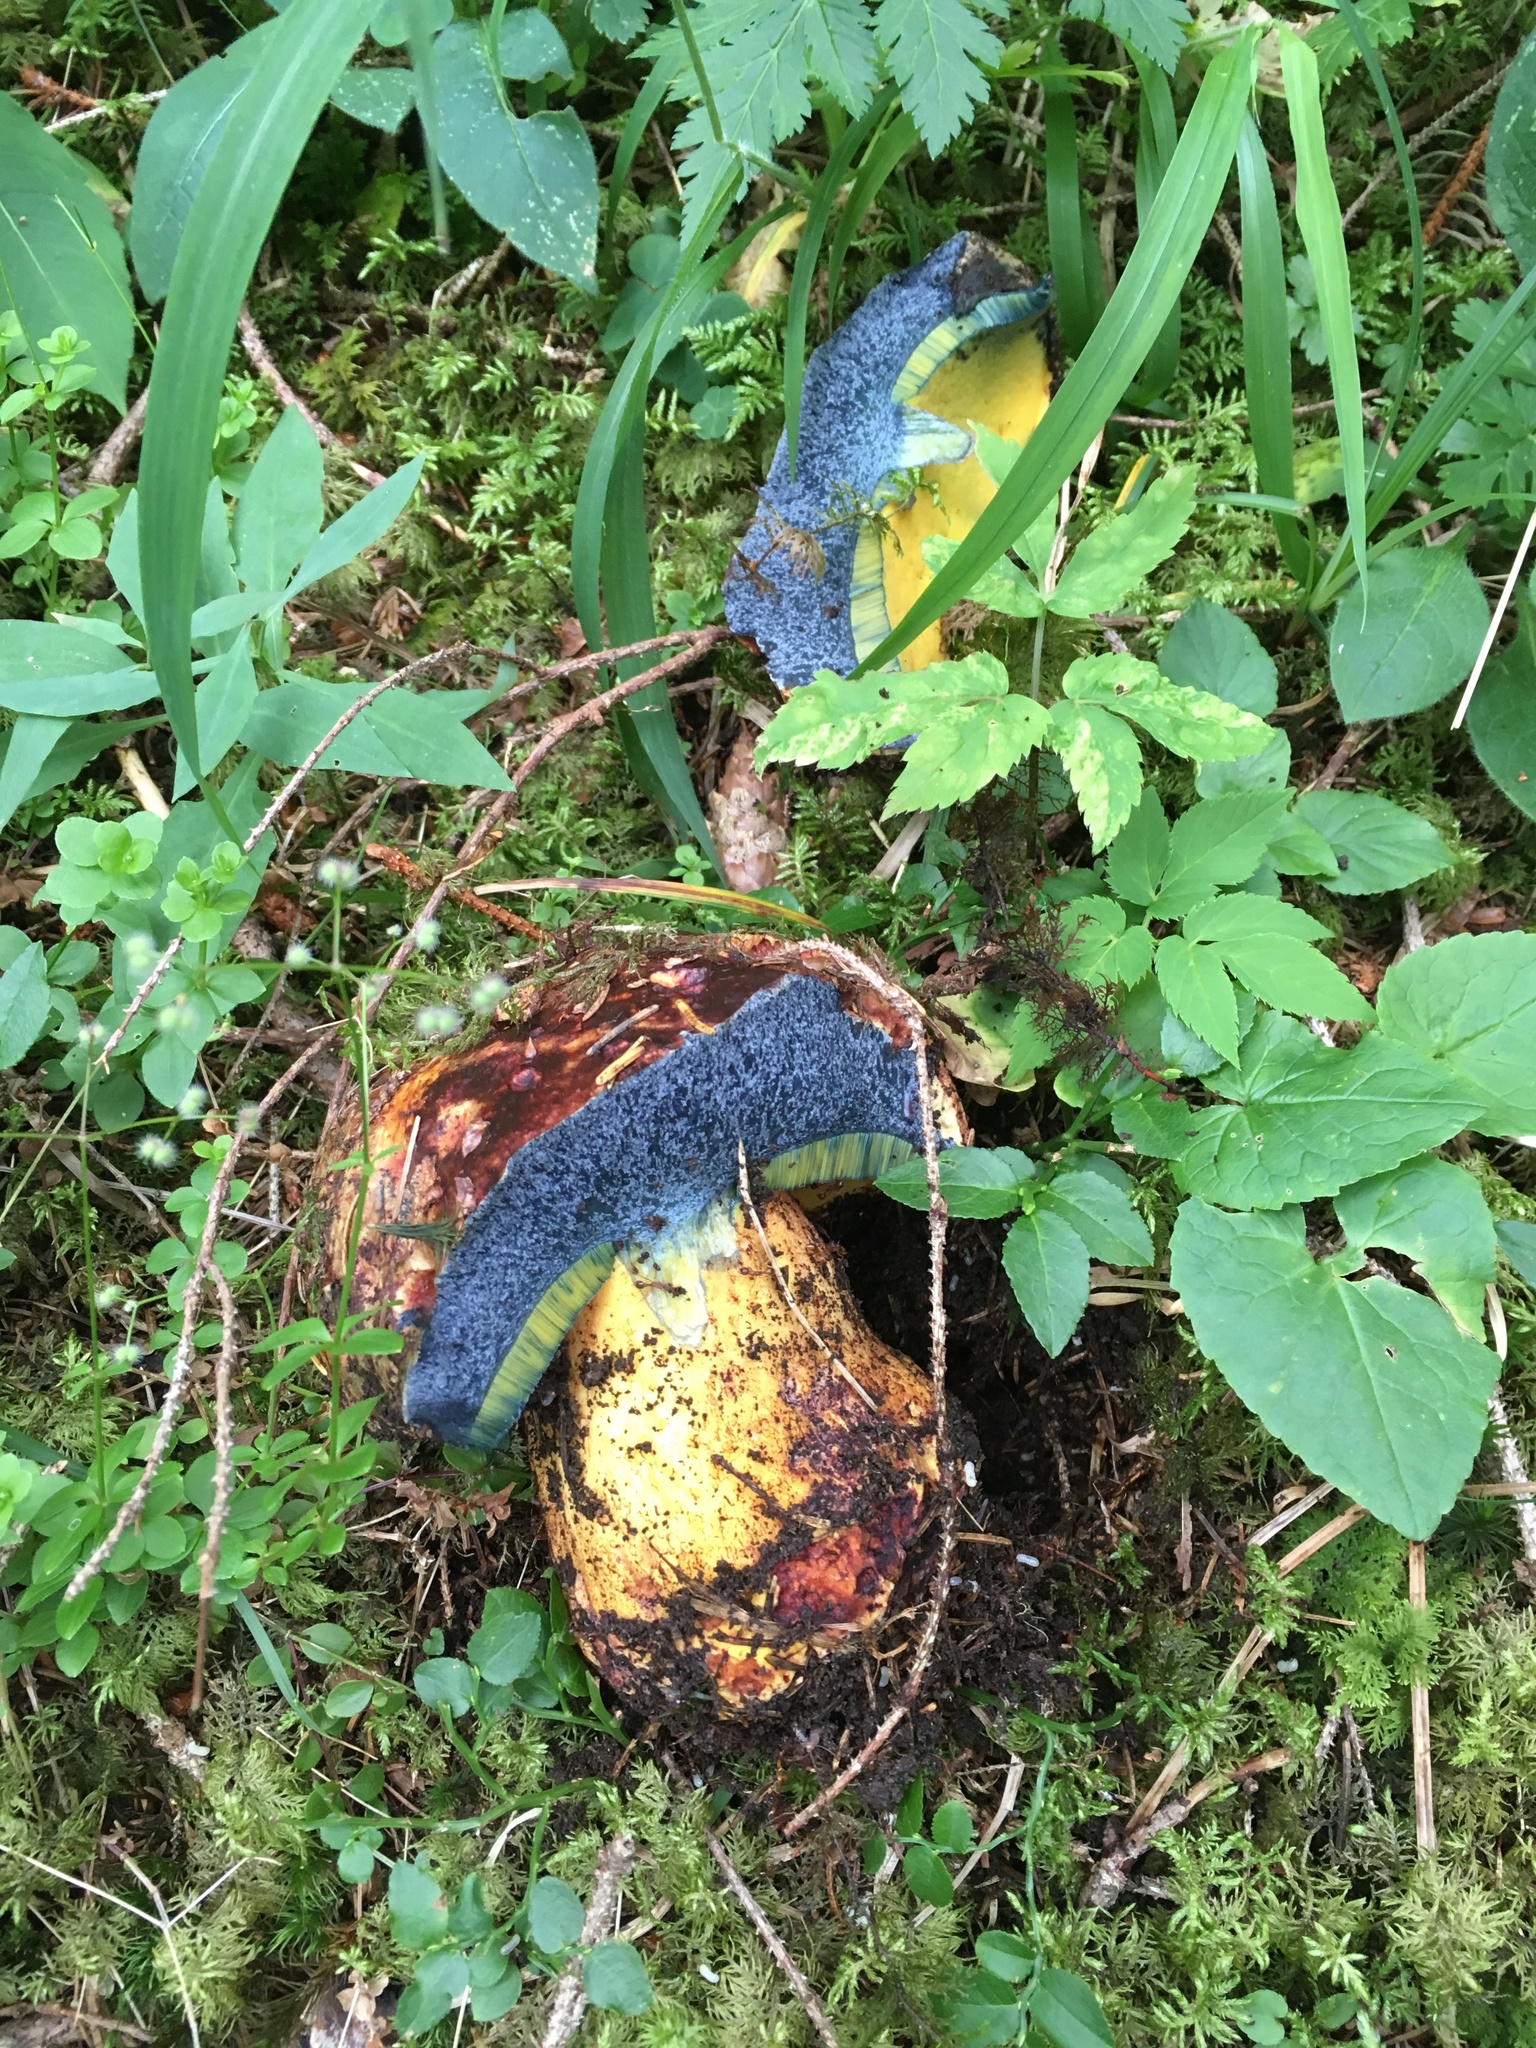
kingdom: Fungi
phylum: Basidiomycota
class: Agaricomycetes
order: Boletales
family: Boletaceae
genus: Cyanoboletus
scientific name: Cyanoboletus pulverulentus
